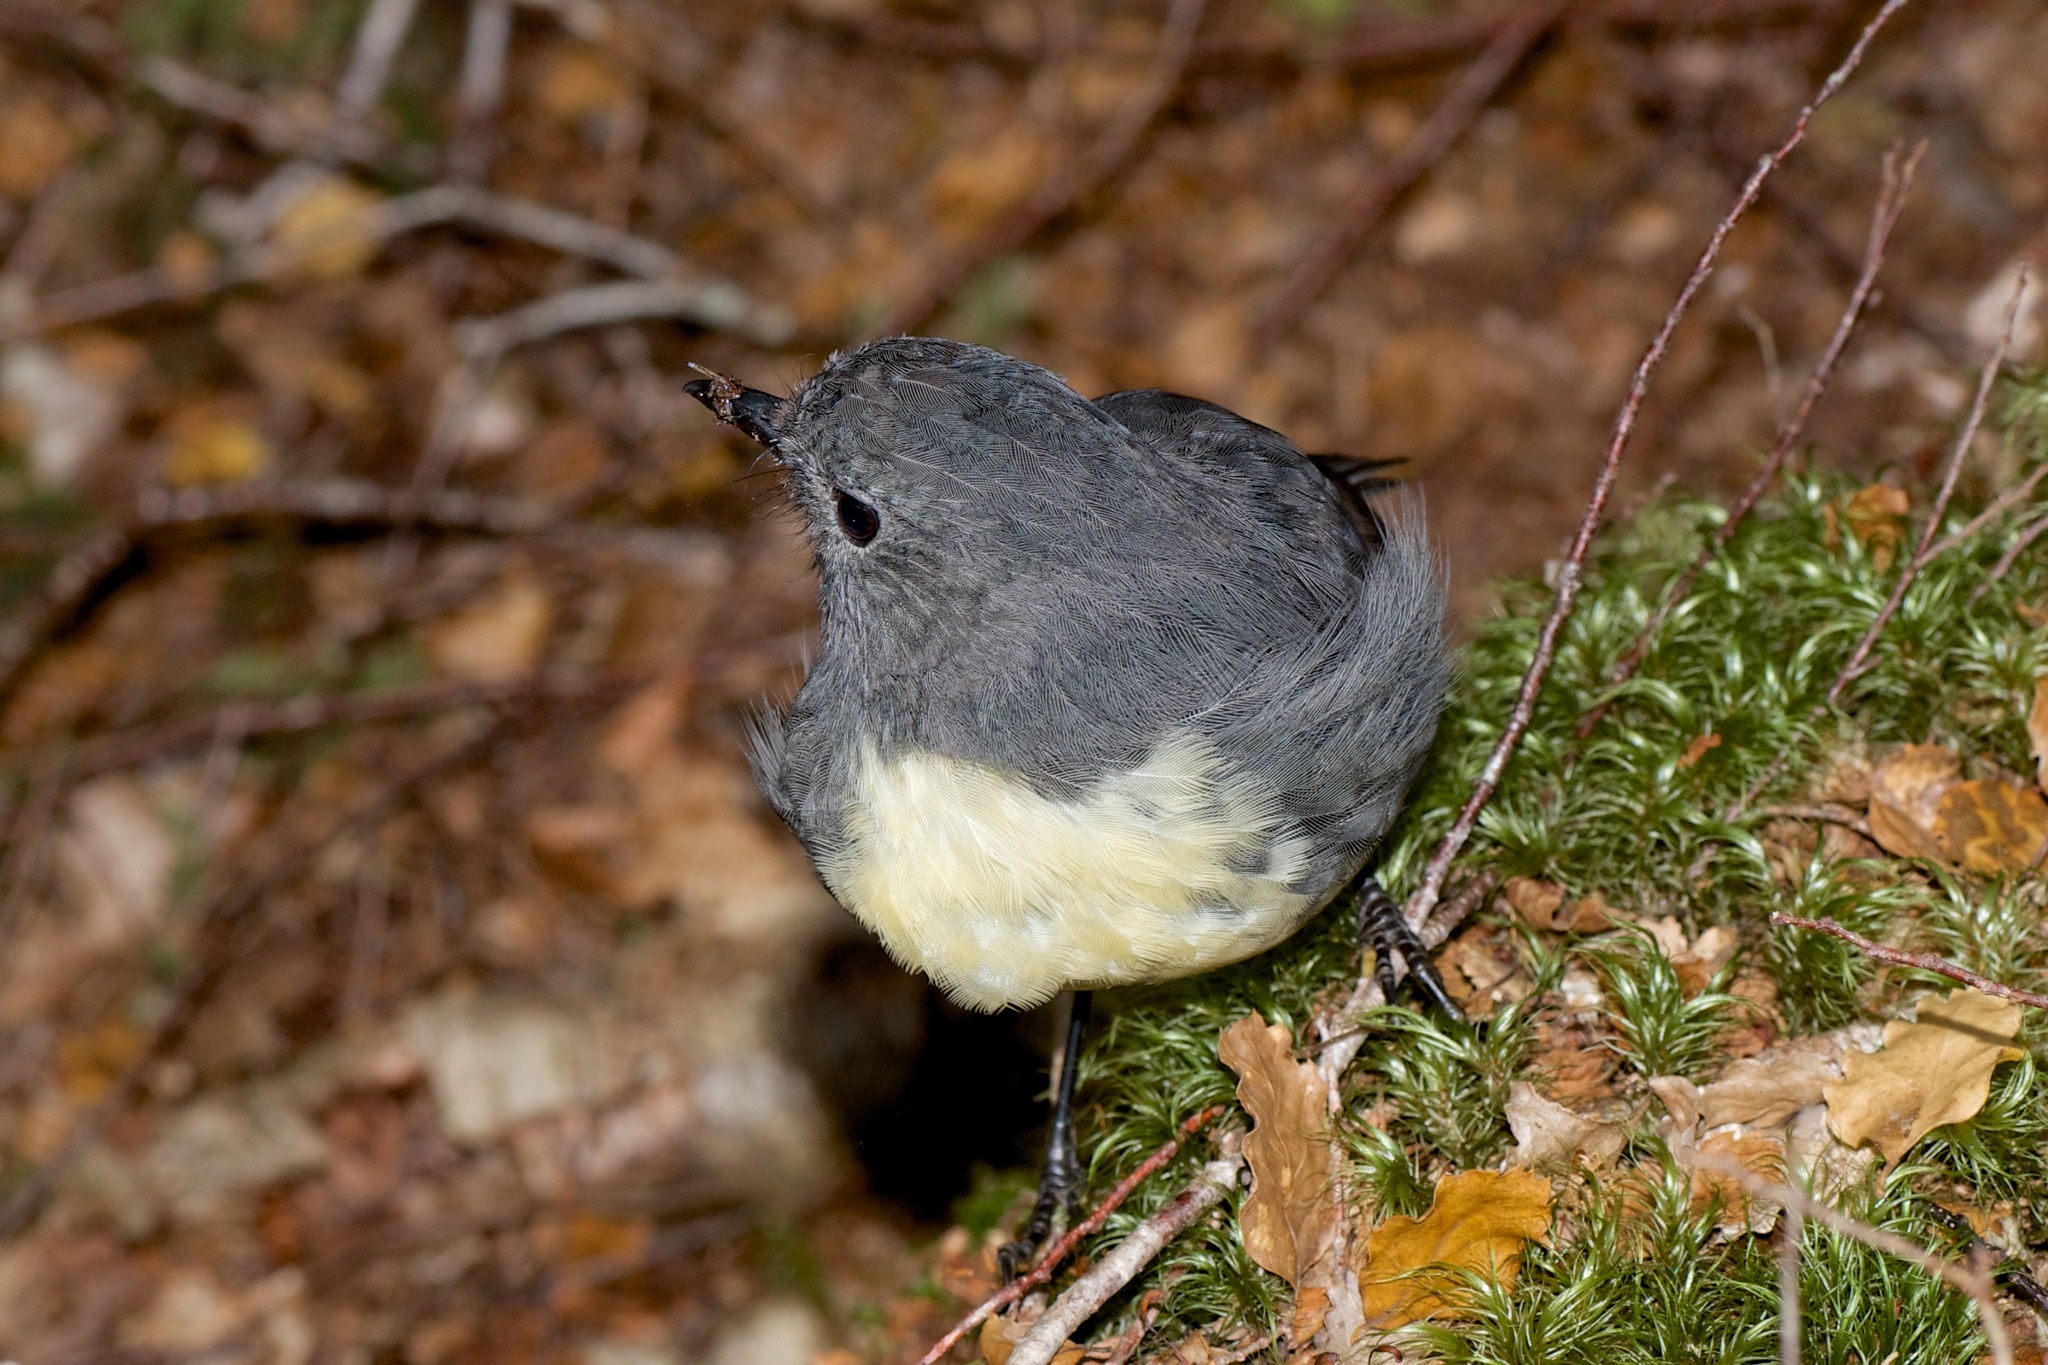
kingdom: Animalia
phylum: Chordata
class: Aves
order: Passeriformes
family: Petroicidae
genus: Petroica
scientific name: Petroica australis
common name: New zealand robin
